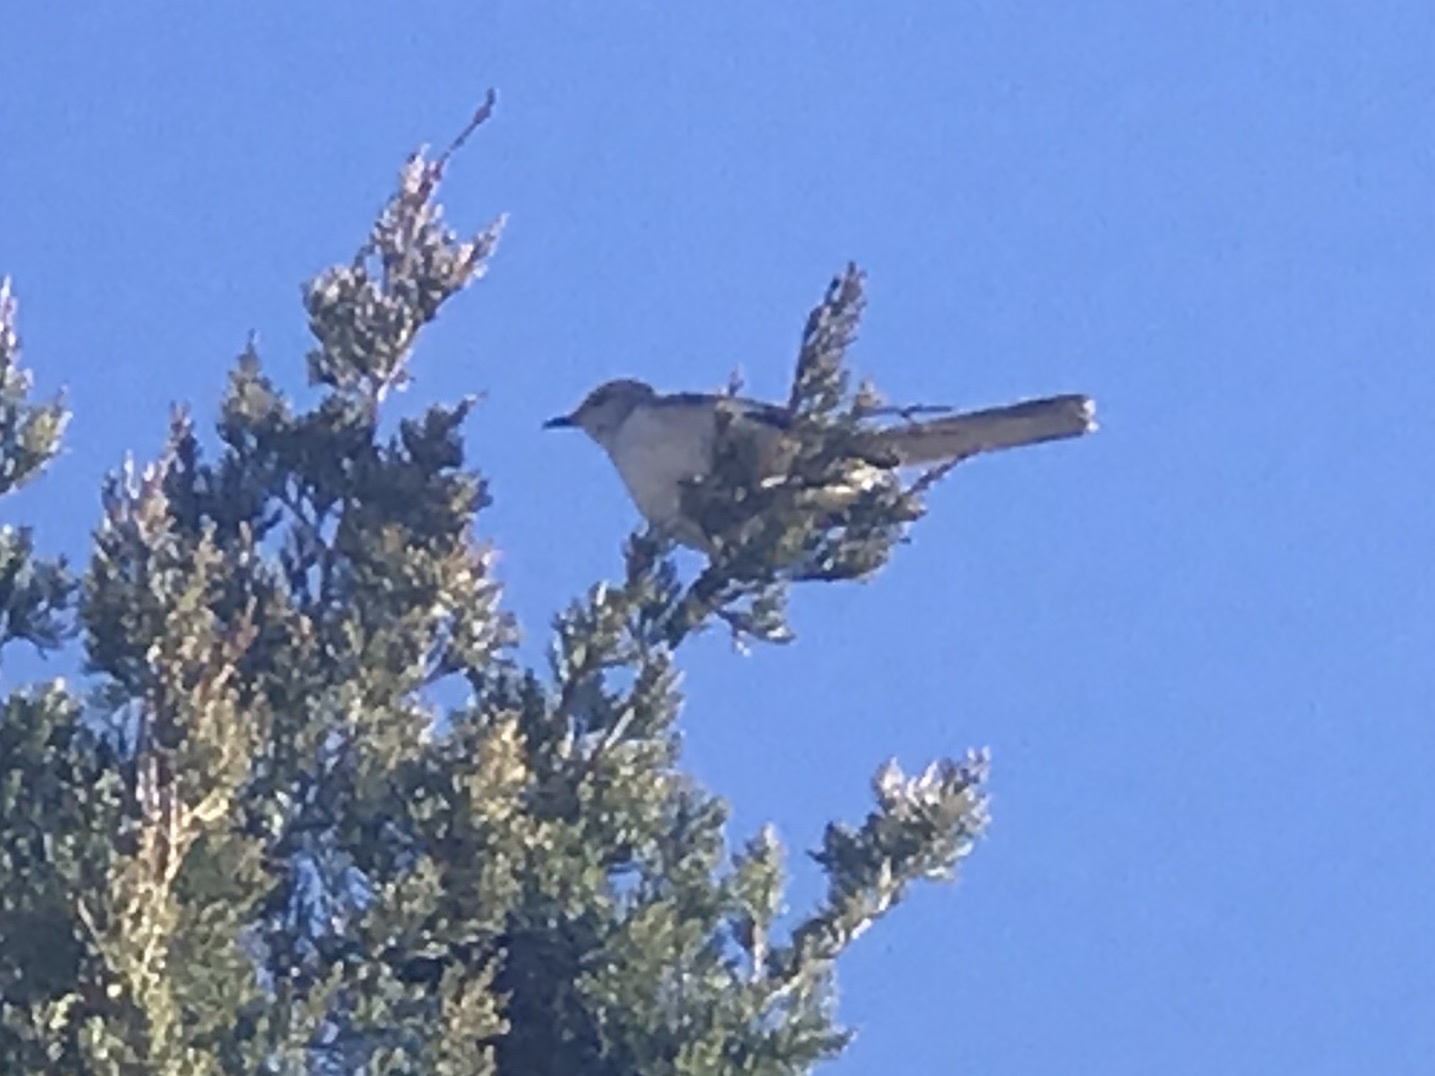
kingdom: Animalia
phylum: Chordata
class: Aves
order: Passeriformes
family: Mimidae
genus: Mimus
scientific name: Mimus polyglottos
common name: Northern mockingbird
